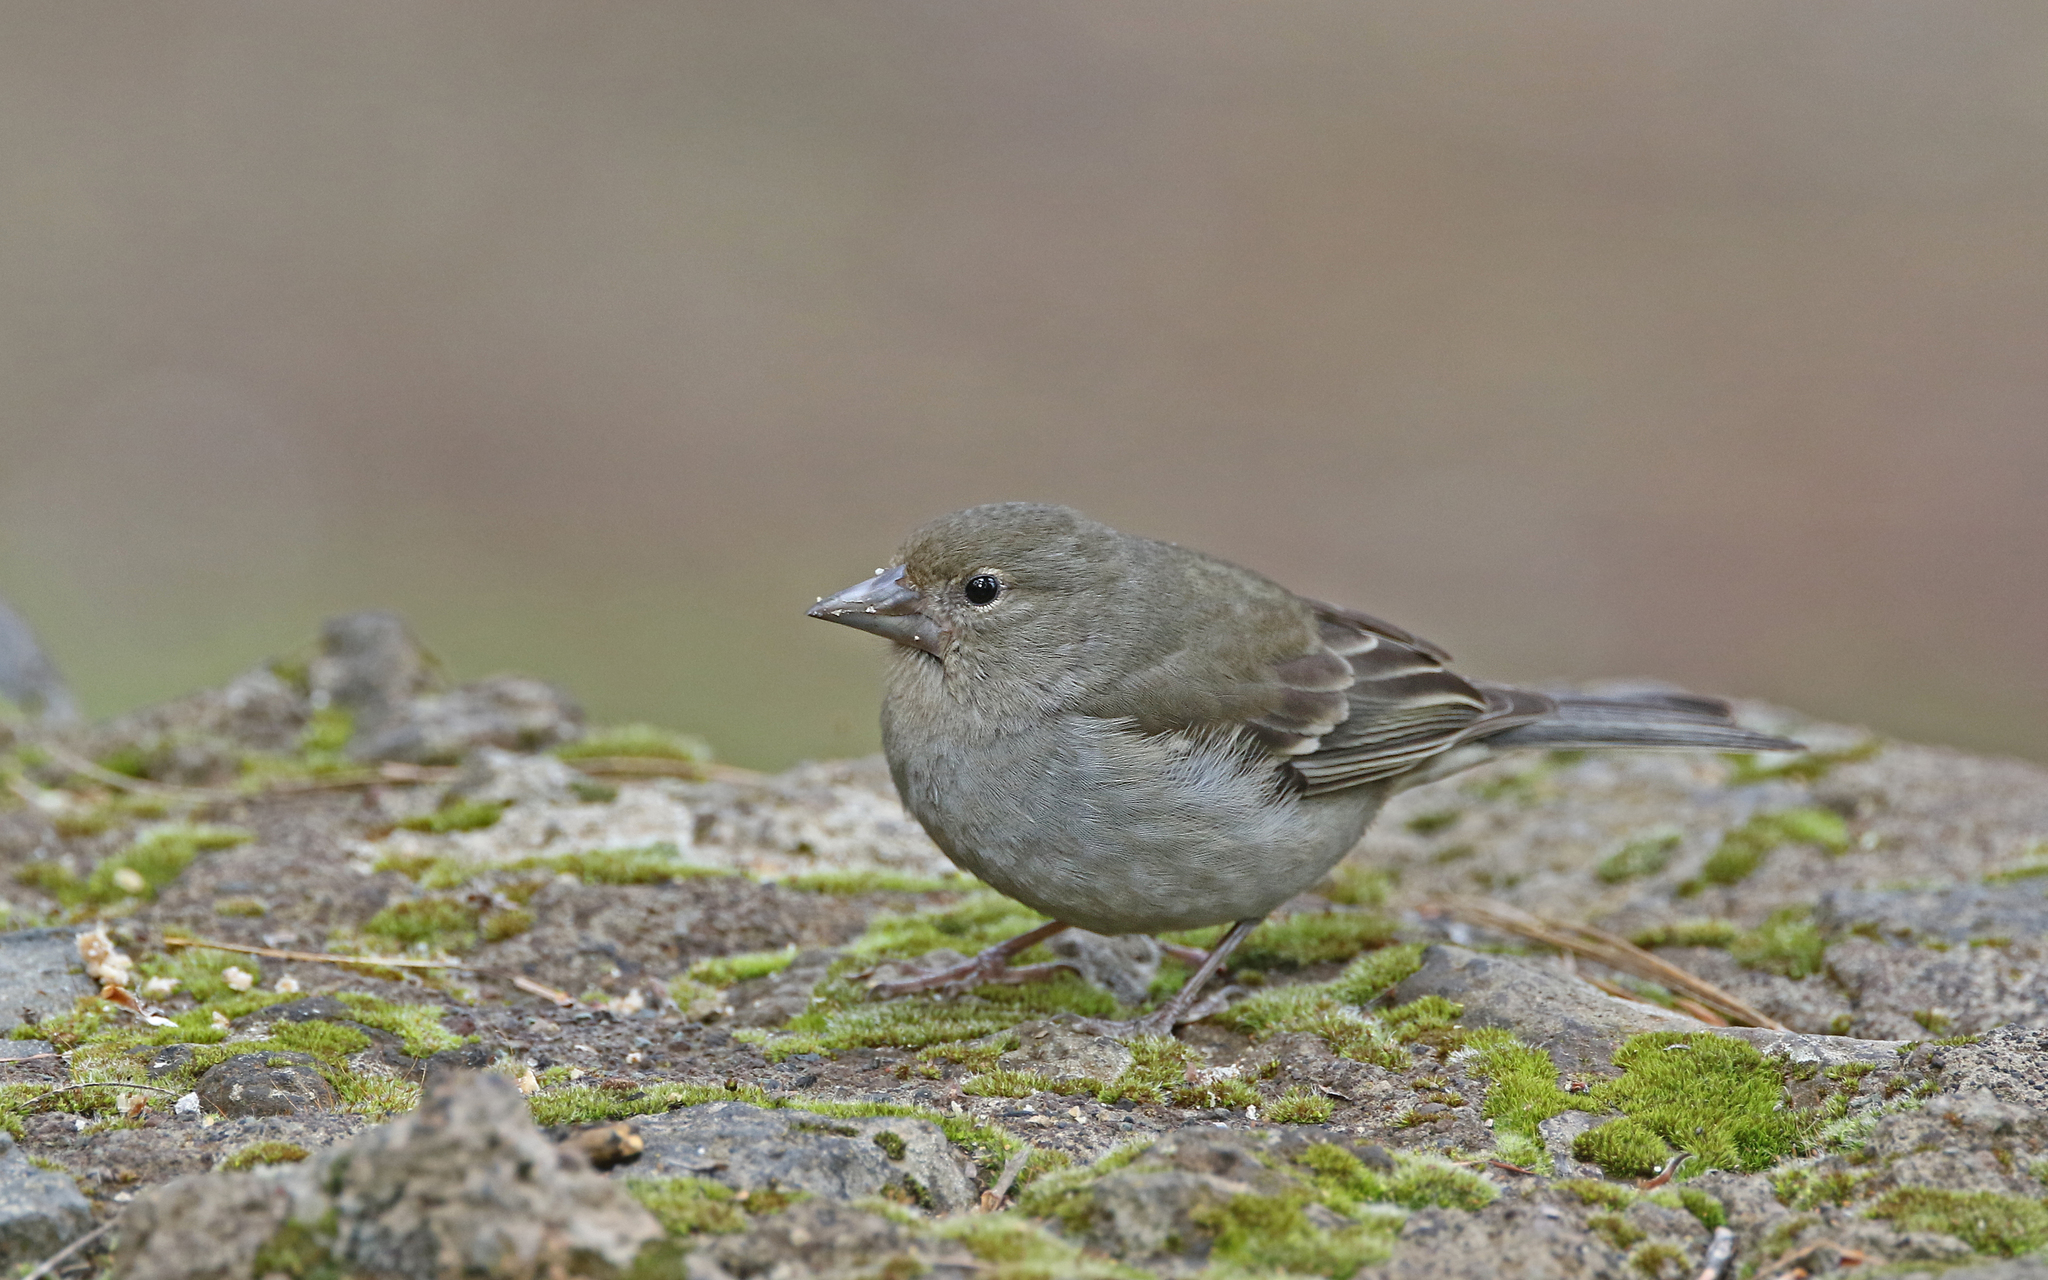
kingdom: Animalia
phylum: Chordata
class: Aves
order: Passeriformes
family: Fringillidae
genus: Fringilla
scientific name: Fringilla teydea
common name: Blue chaffinch
